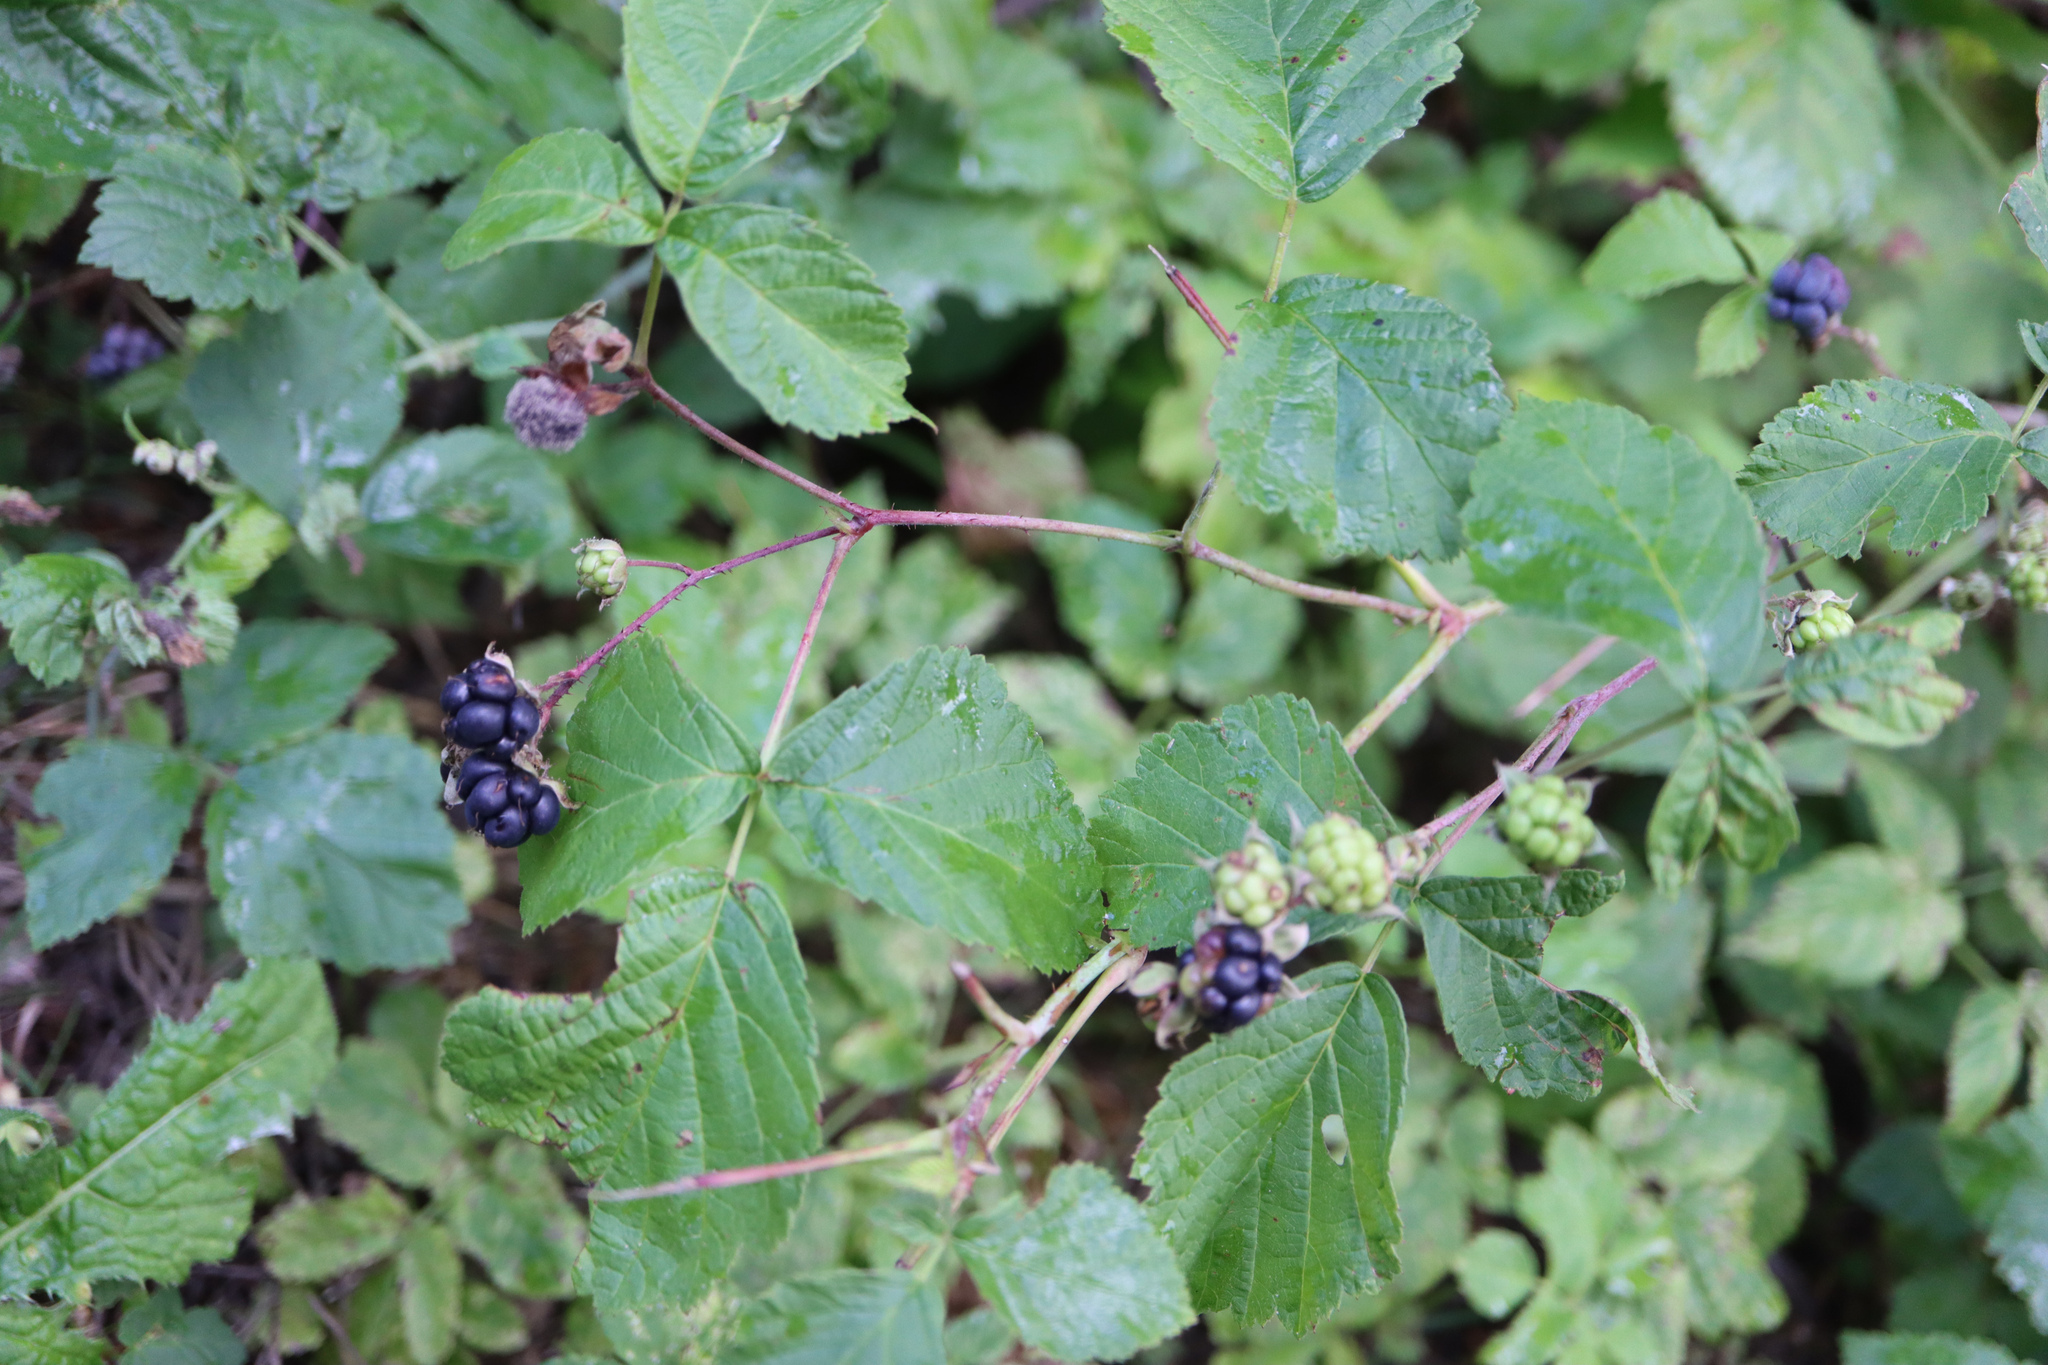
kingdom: Plantae
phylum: Tracheophyta
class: Magnoliopsida
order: Rosales
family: Rosaceae
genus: Rubus
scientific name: Rubus caesius
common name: Dewberry
